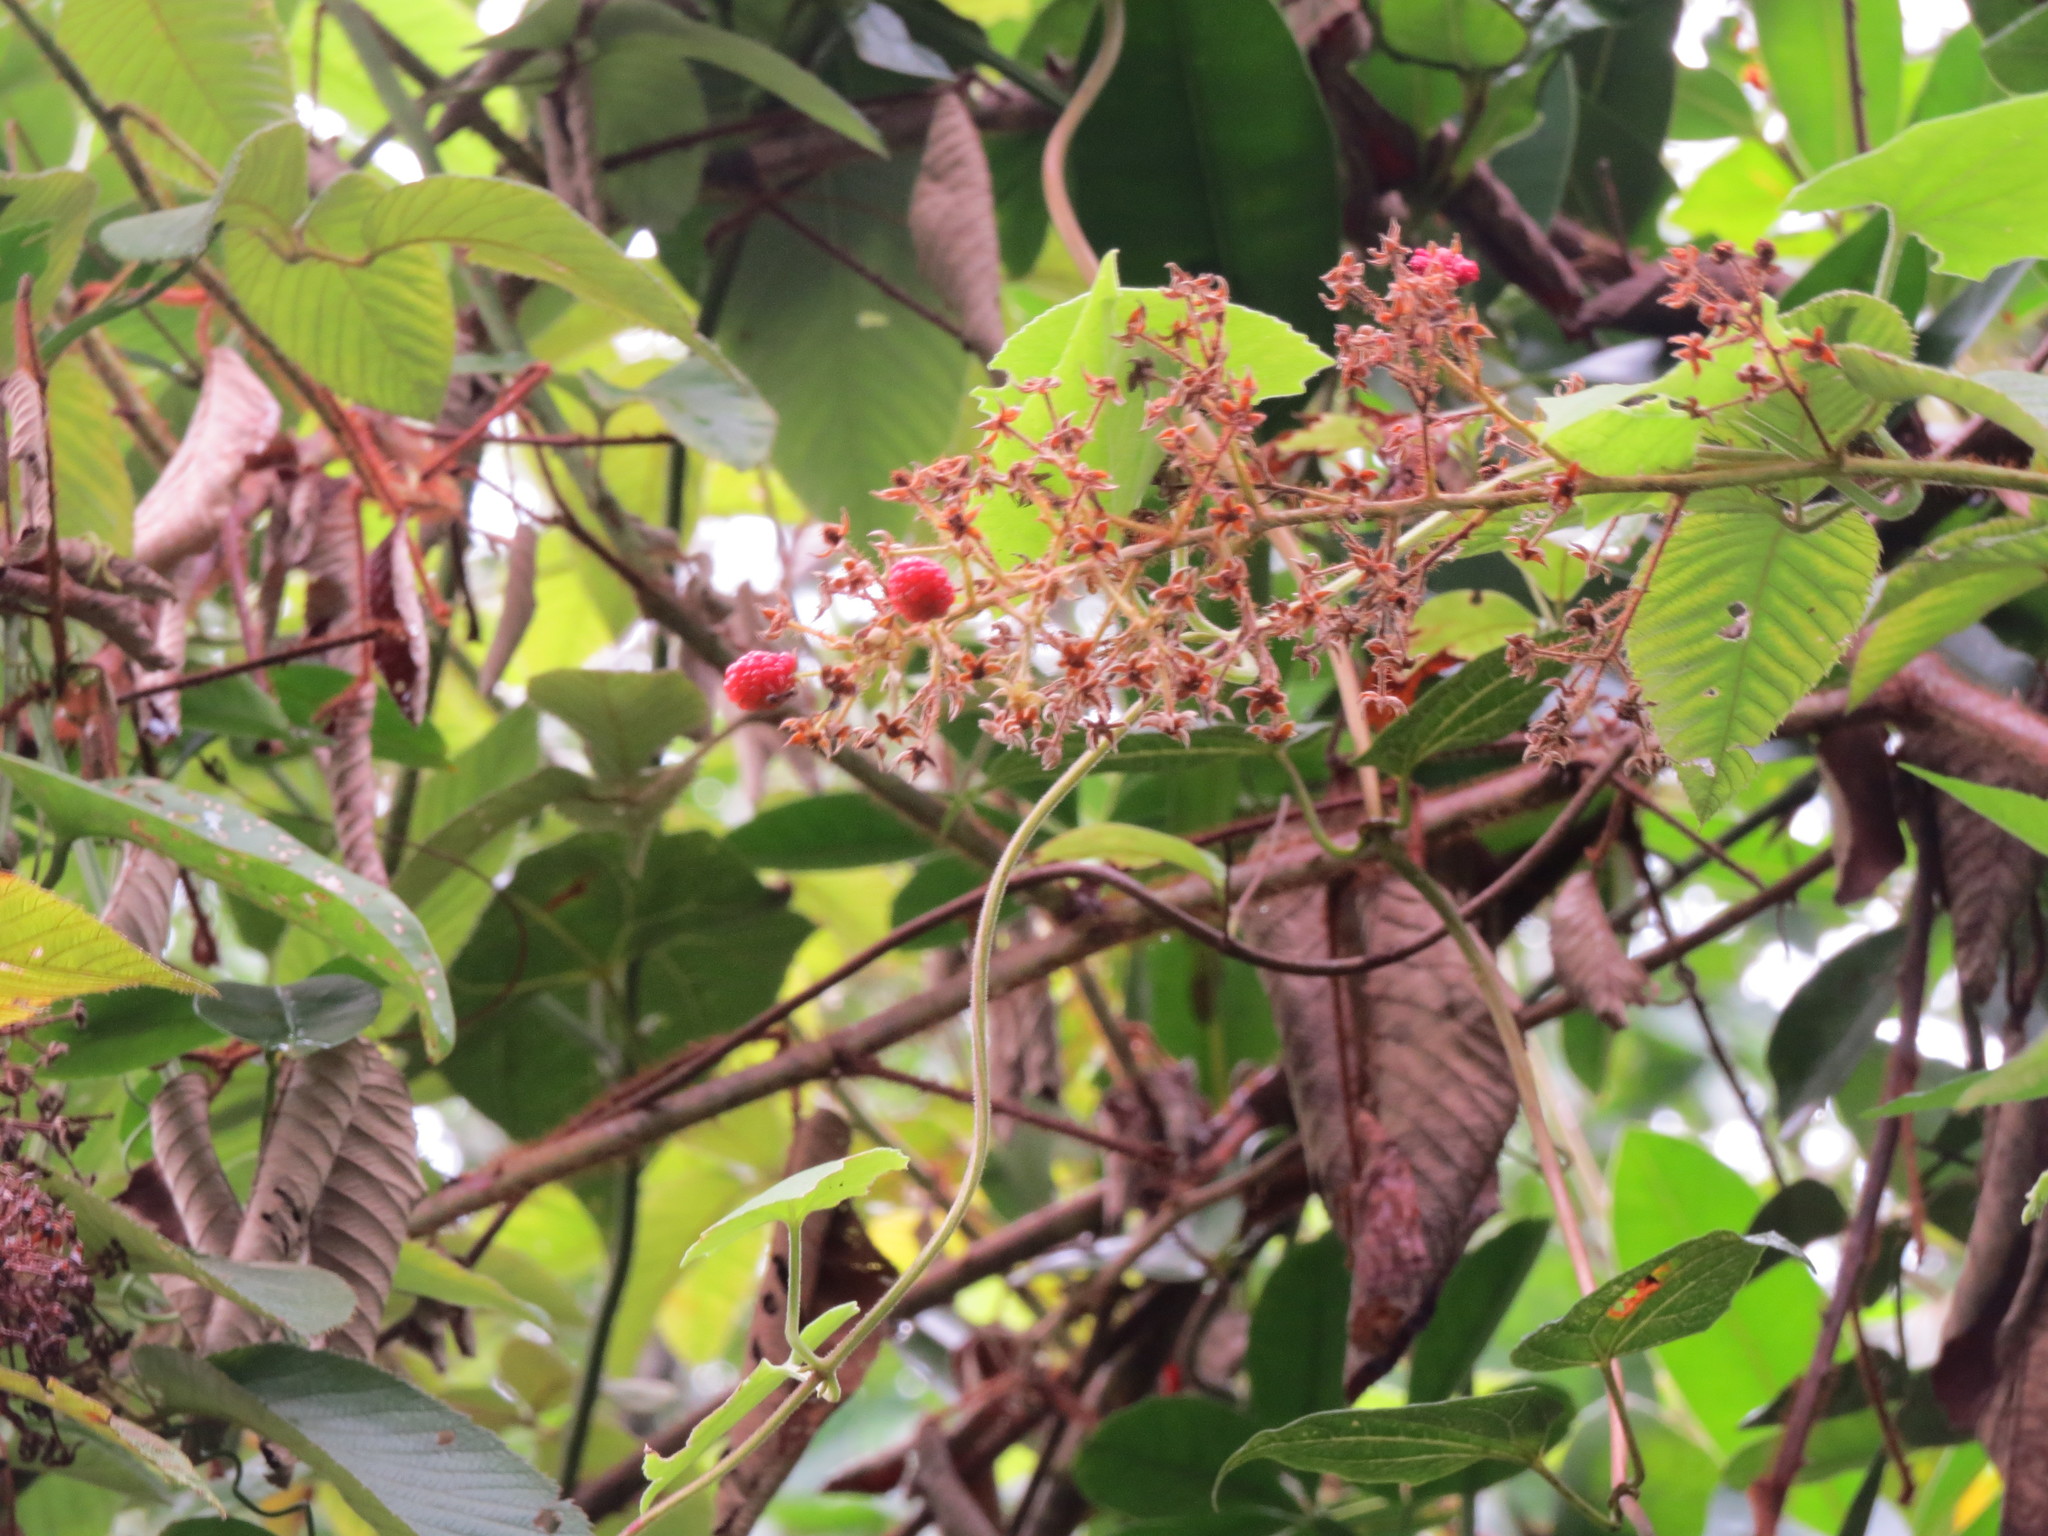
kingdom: Plantae
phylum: Tracheophyta
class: Magnoliopsida
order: Rosales
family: Rosaceae
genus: Rubus
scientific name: Rubus urticifolius
